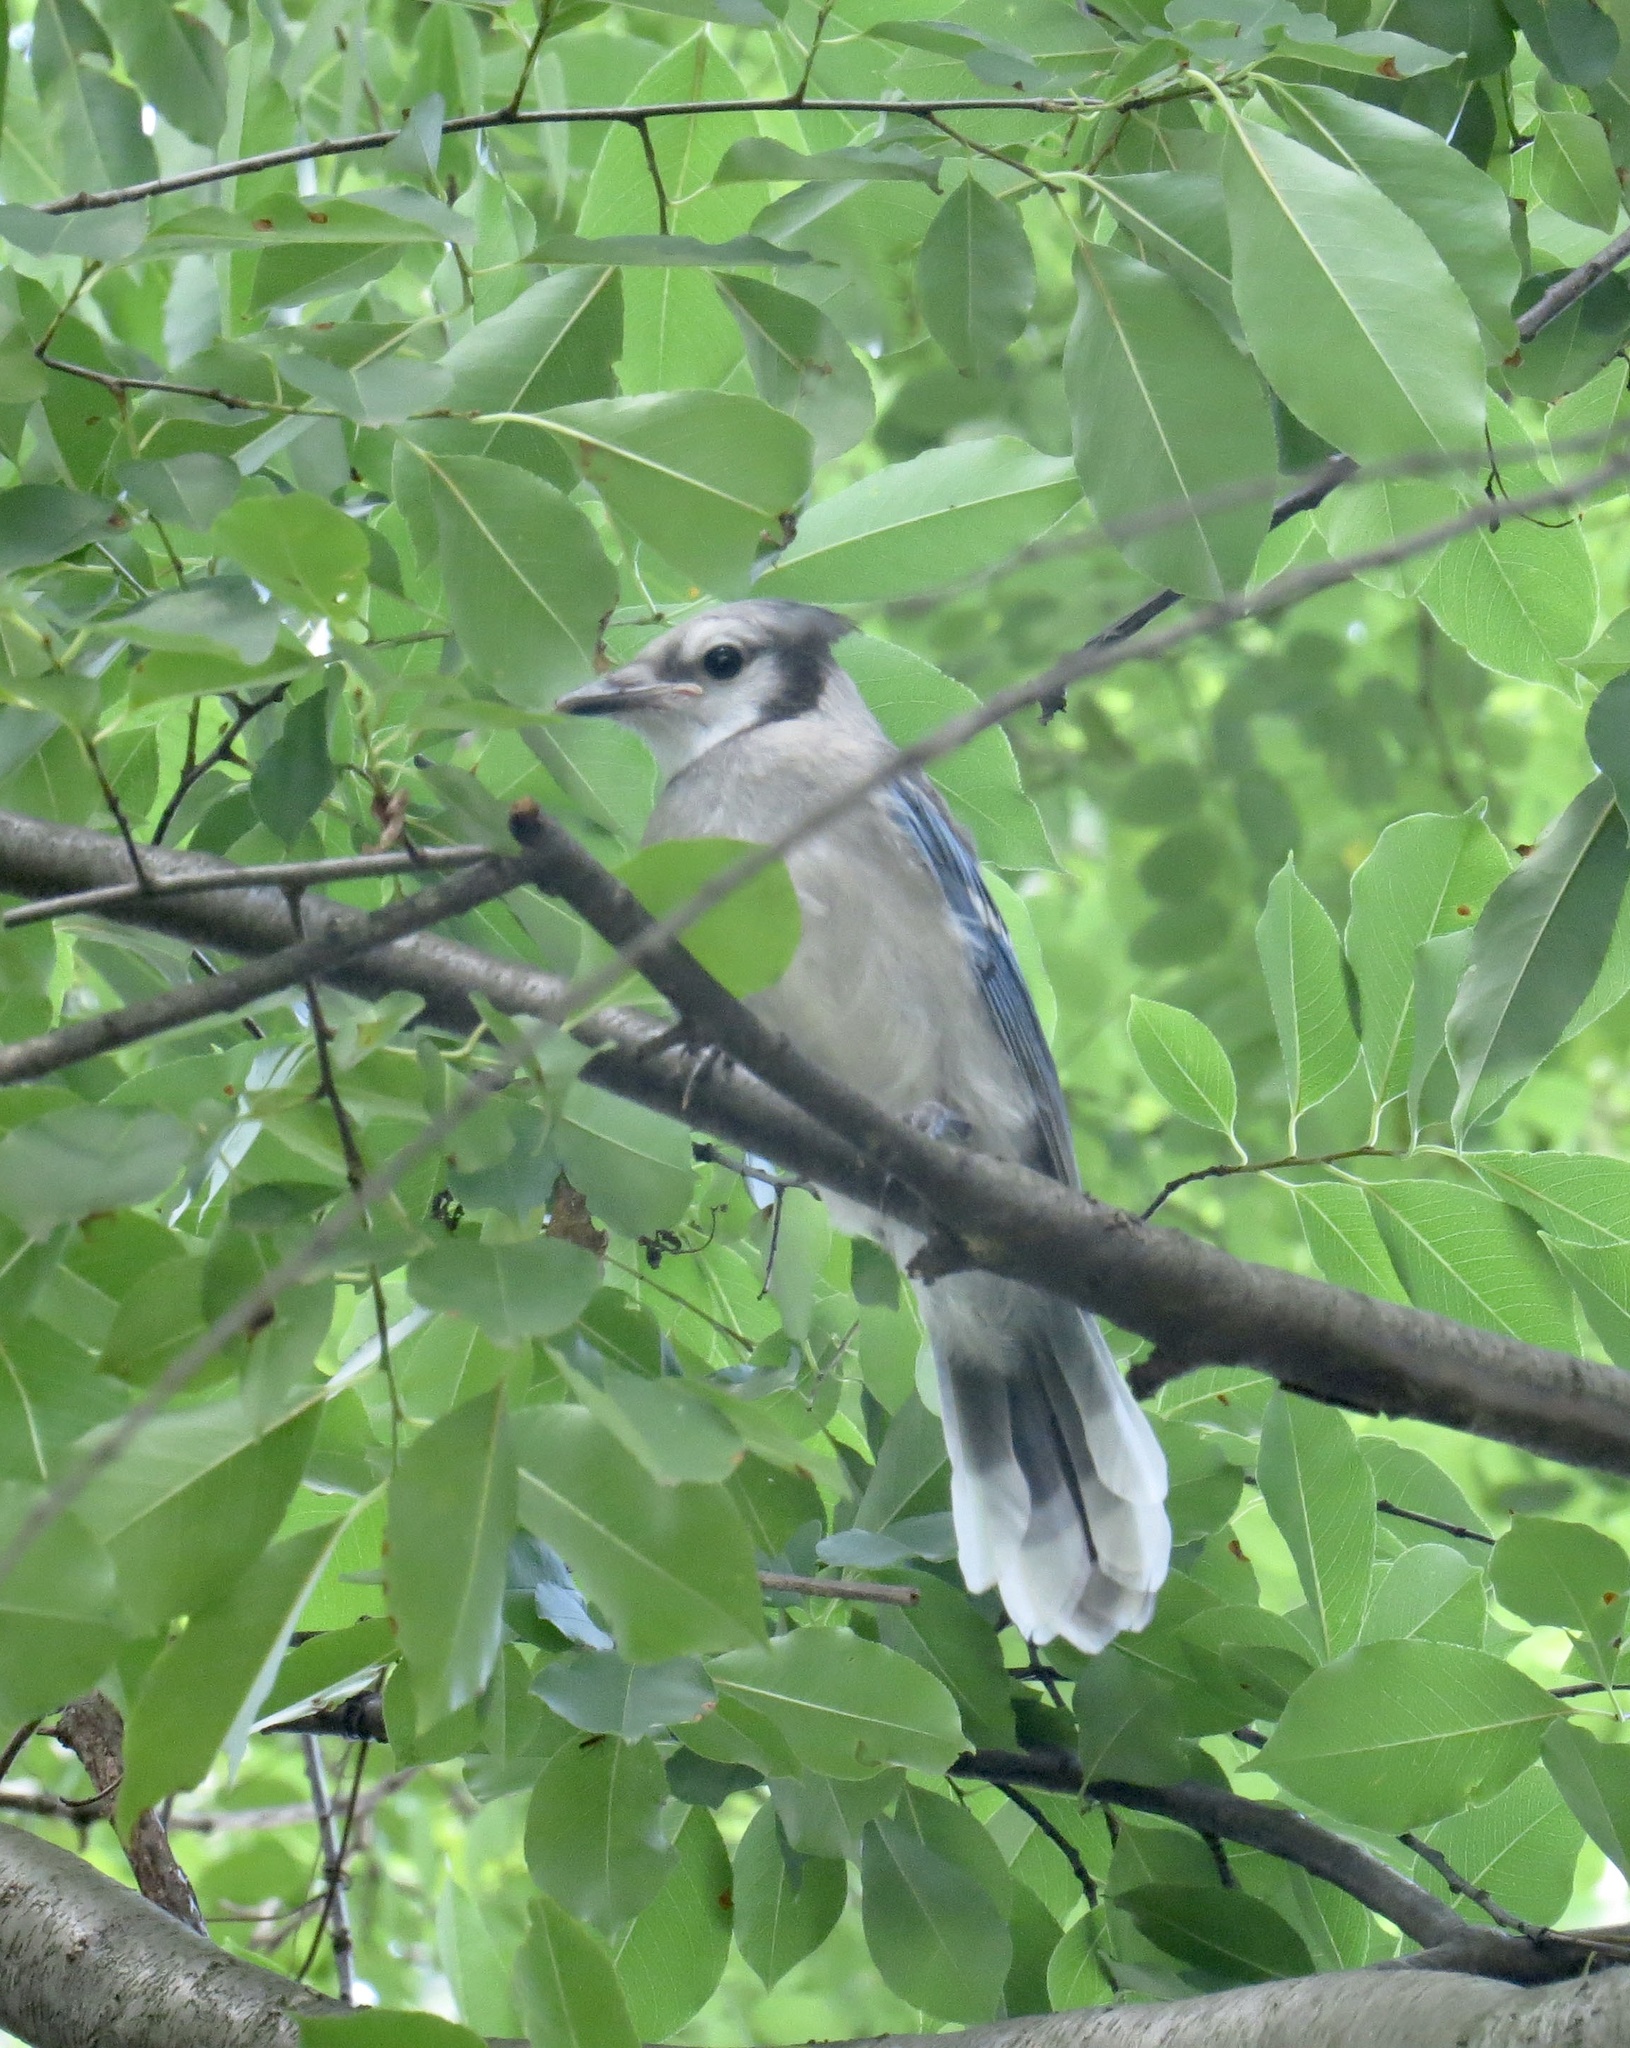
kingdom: Animalia
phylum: Chordata
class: Aves
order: Passeriformes
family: Corvidae
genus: Cyanocitta
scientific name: Cyanocitta cristata
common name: Blue jay
